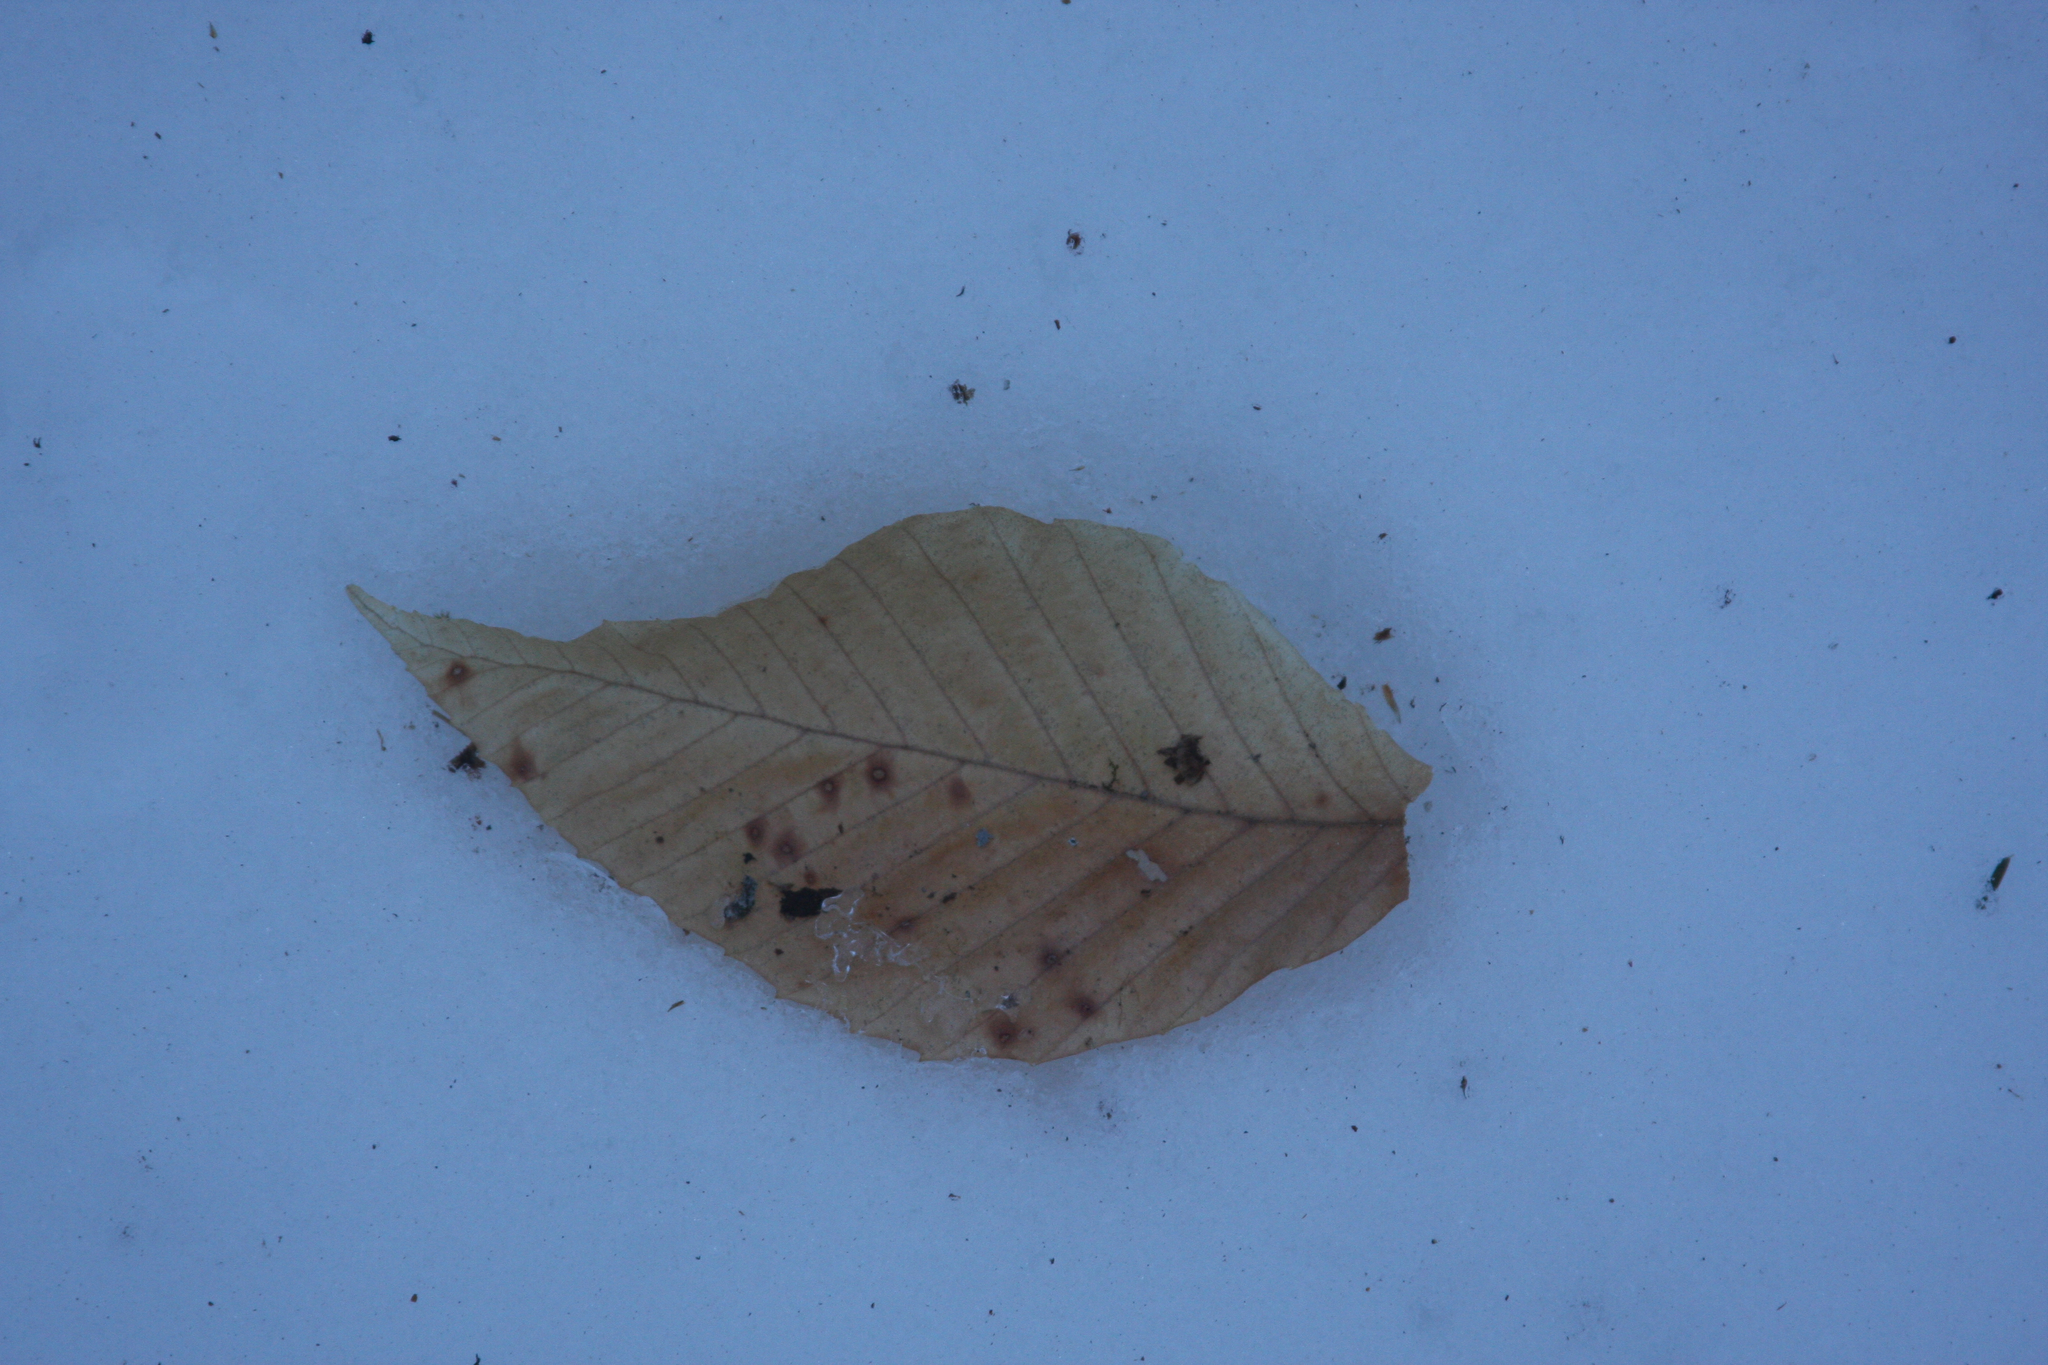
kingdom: Plantae
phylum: Tracheophyta
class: Magnoliopsida
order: Fagales
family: Fagaceae
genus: Fagus
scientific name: Fagus grandifolia
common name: American beech
